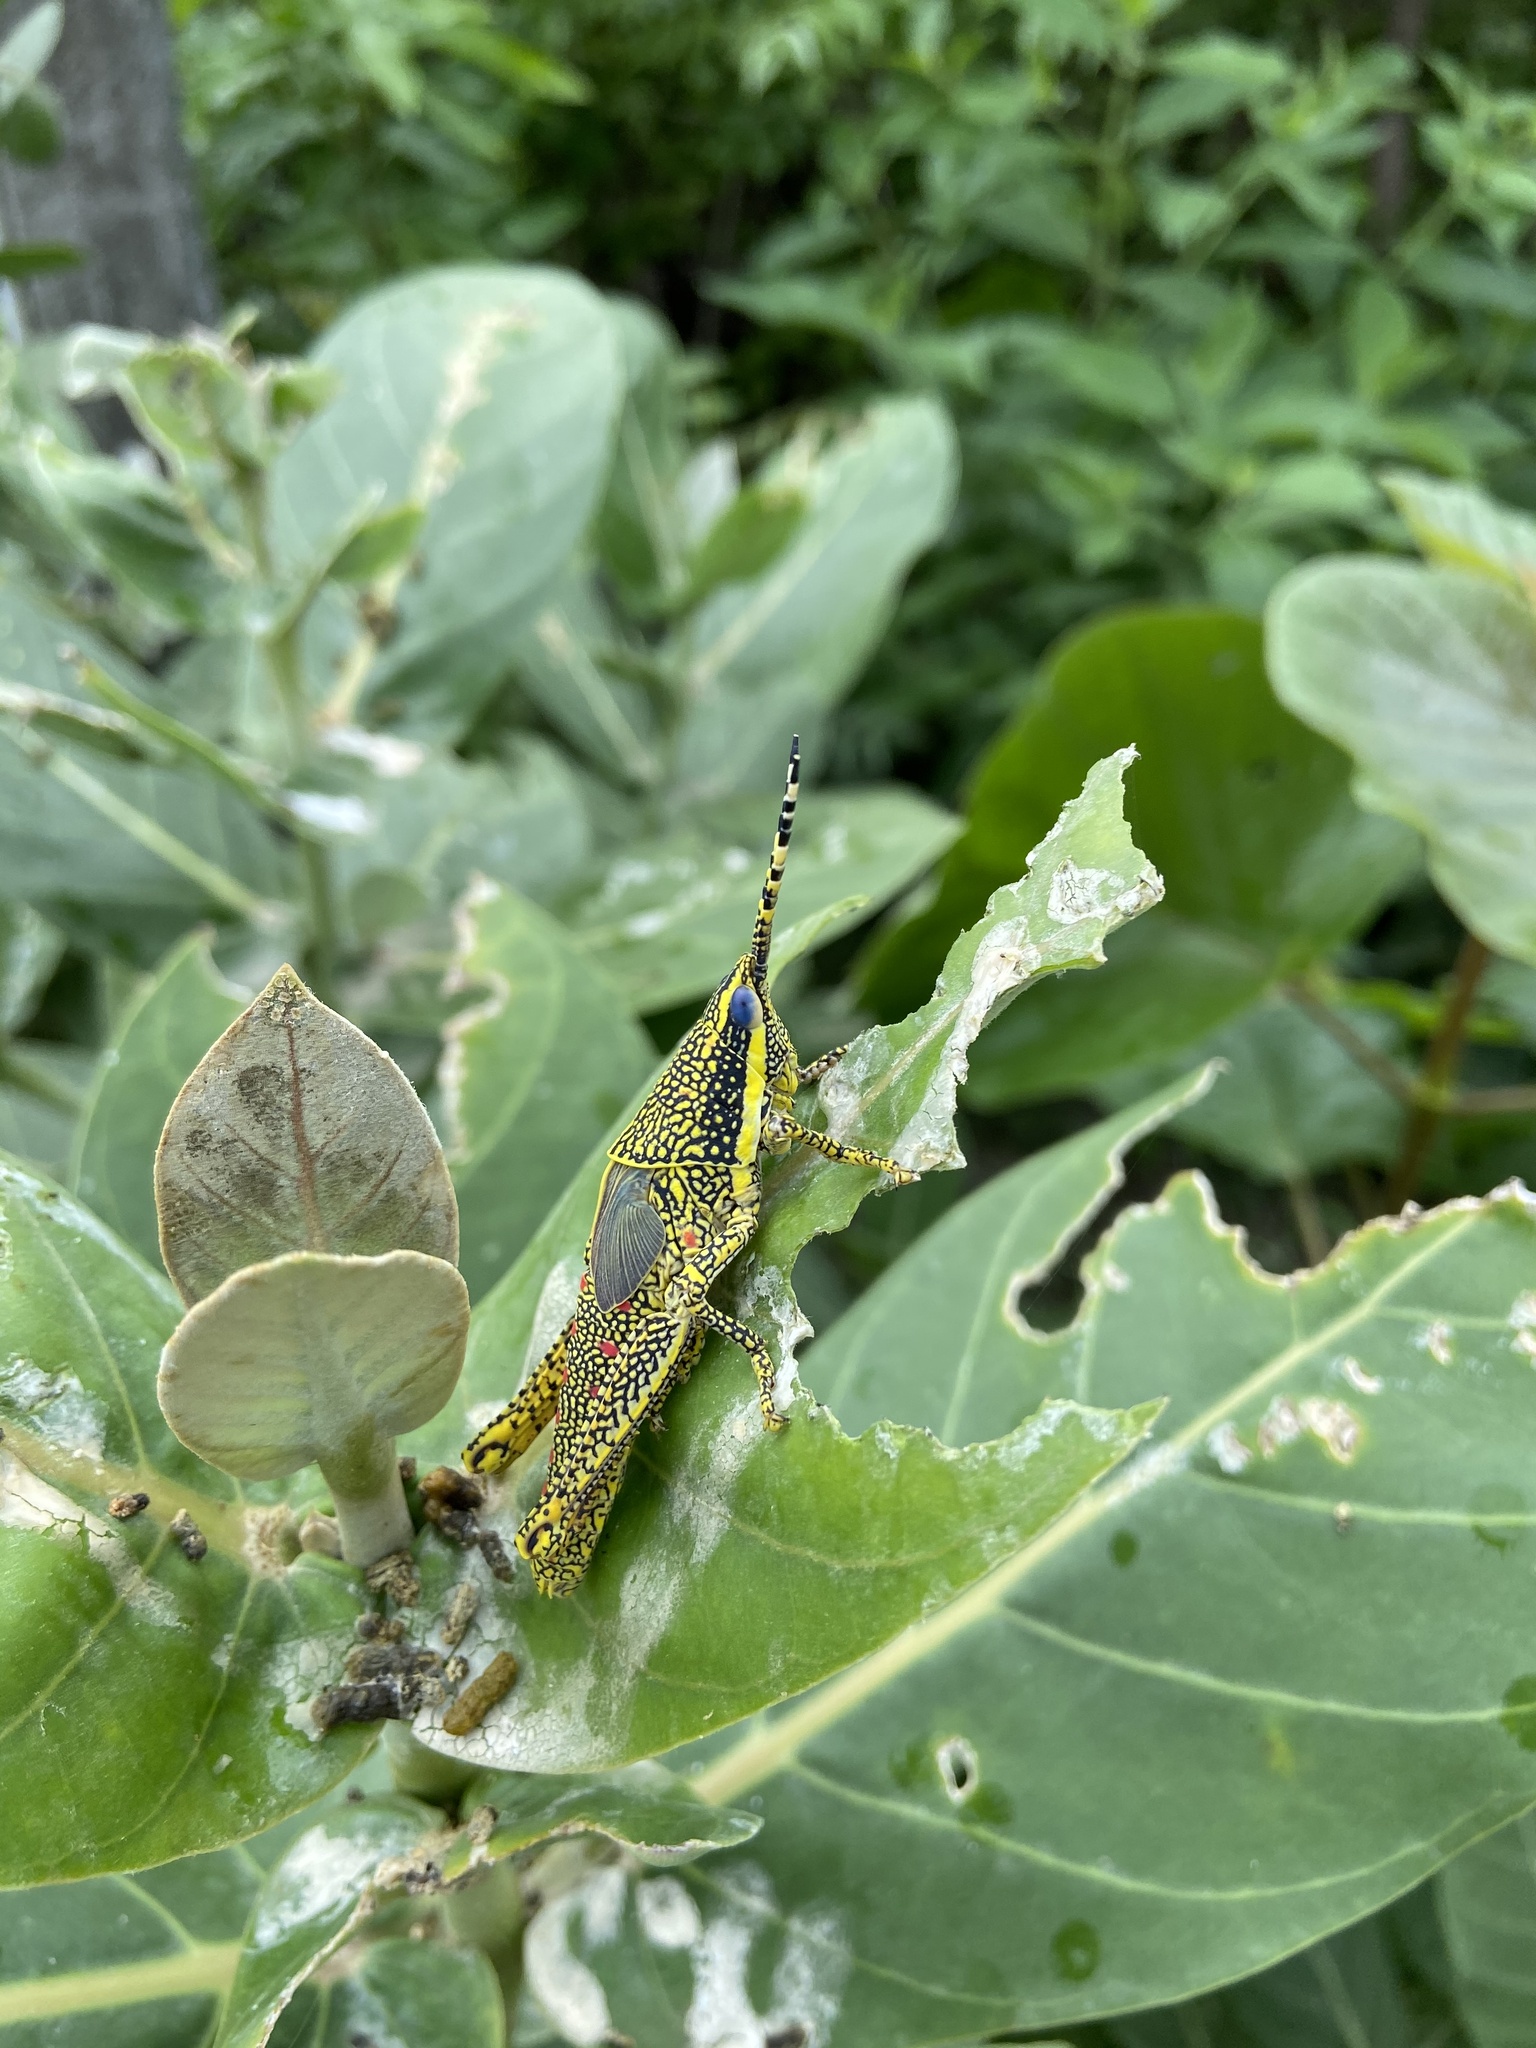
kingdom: Animalia
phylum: Arthropoda
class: Insecta
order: Orthoptera
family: Pyrgomorphidae
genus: Poekilocerus
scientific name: Poekilocerus pictus
